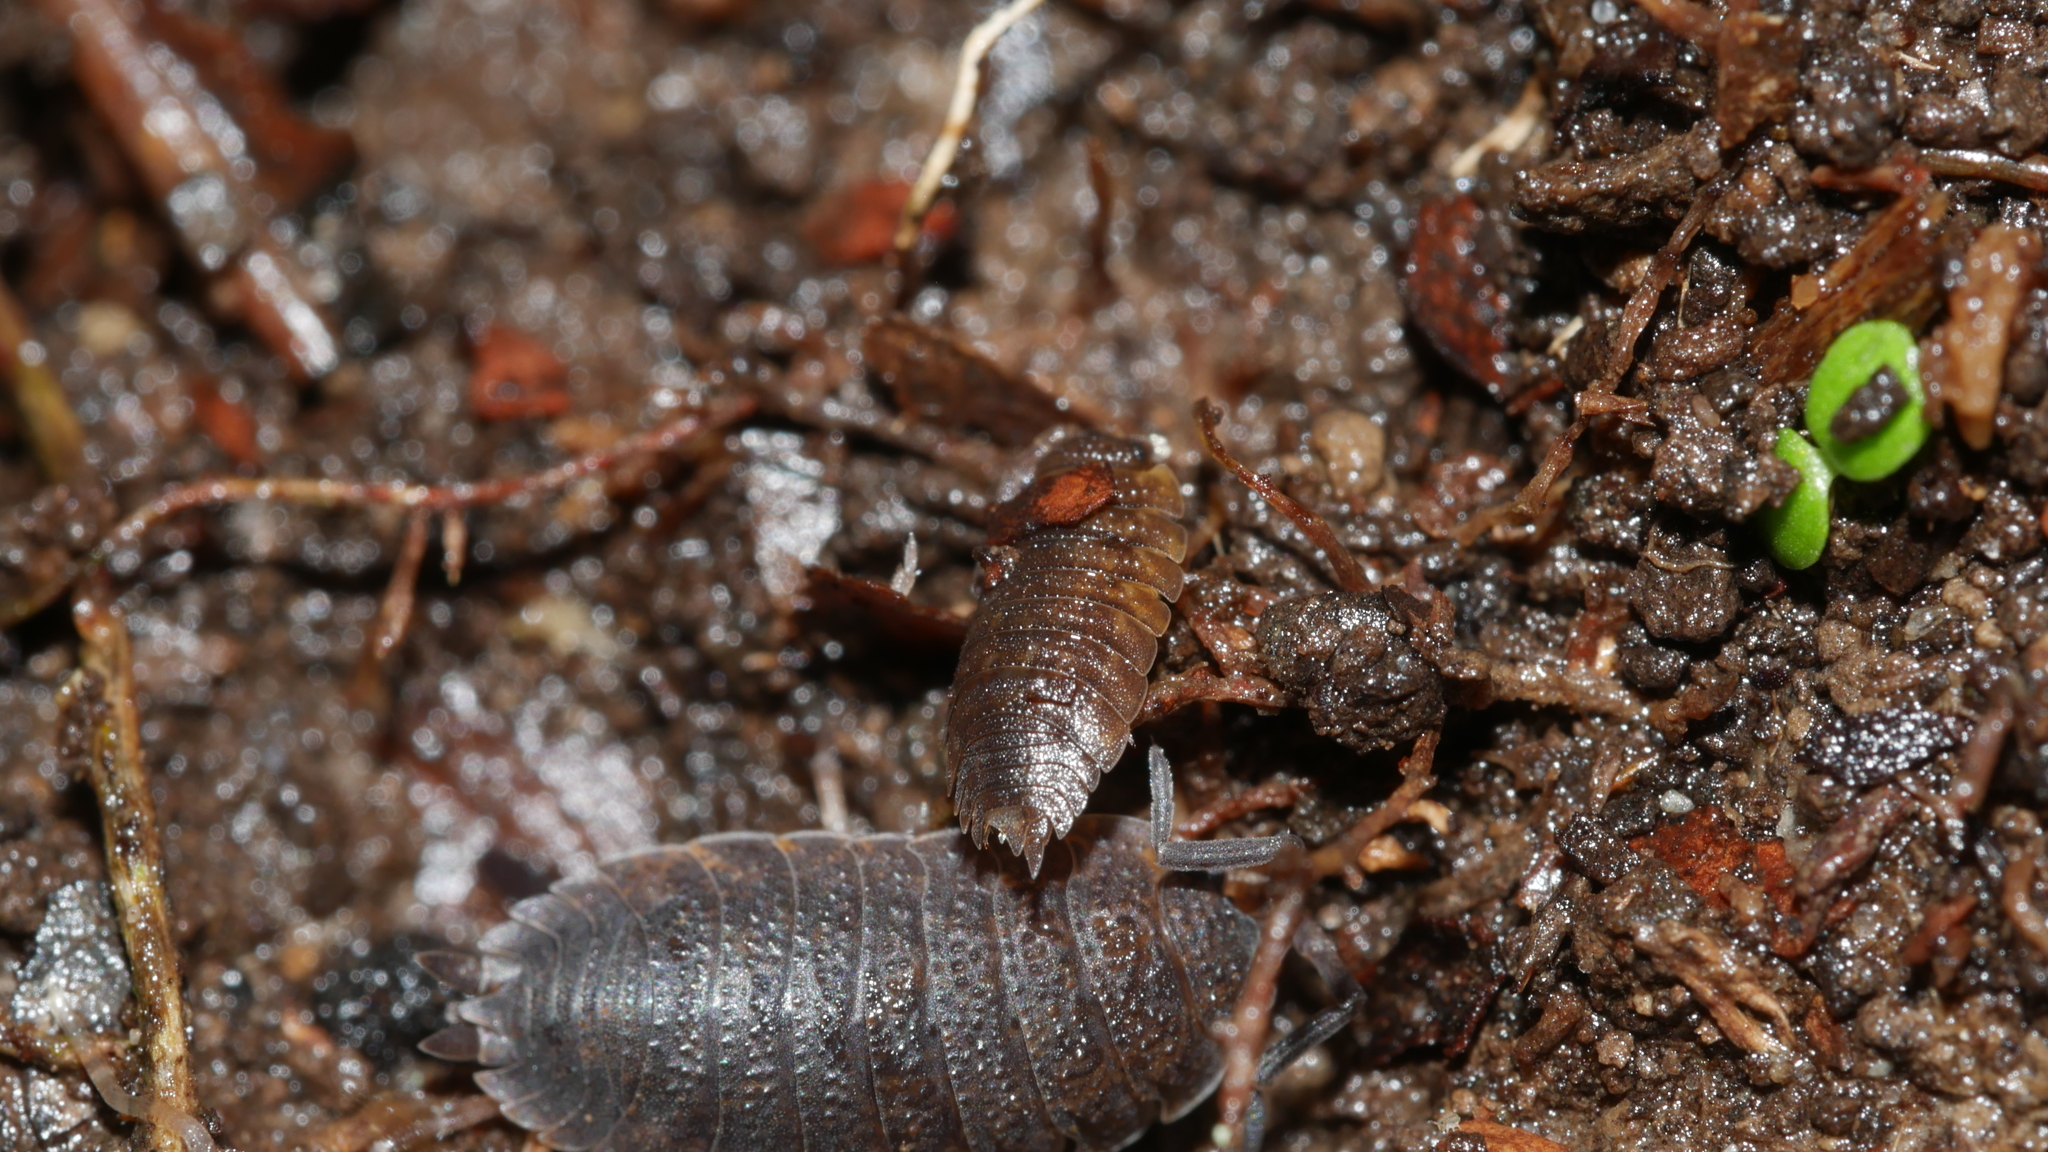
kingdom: Animalia
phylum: Arthropoda
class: Malacostraca
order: Isopoda
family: Porcellionidae
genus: Porcellio
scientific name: Porcellio scaber
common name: Common rough woodlouse
